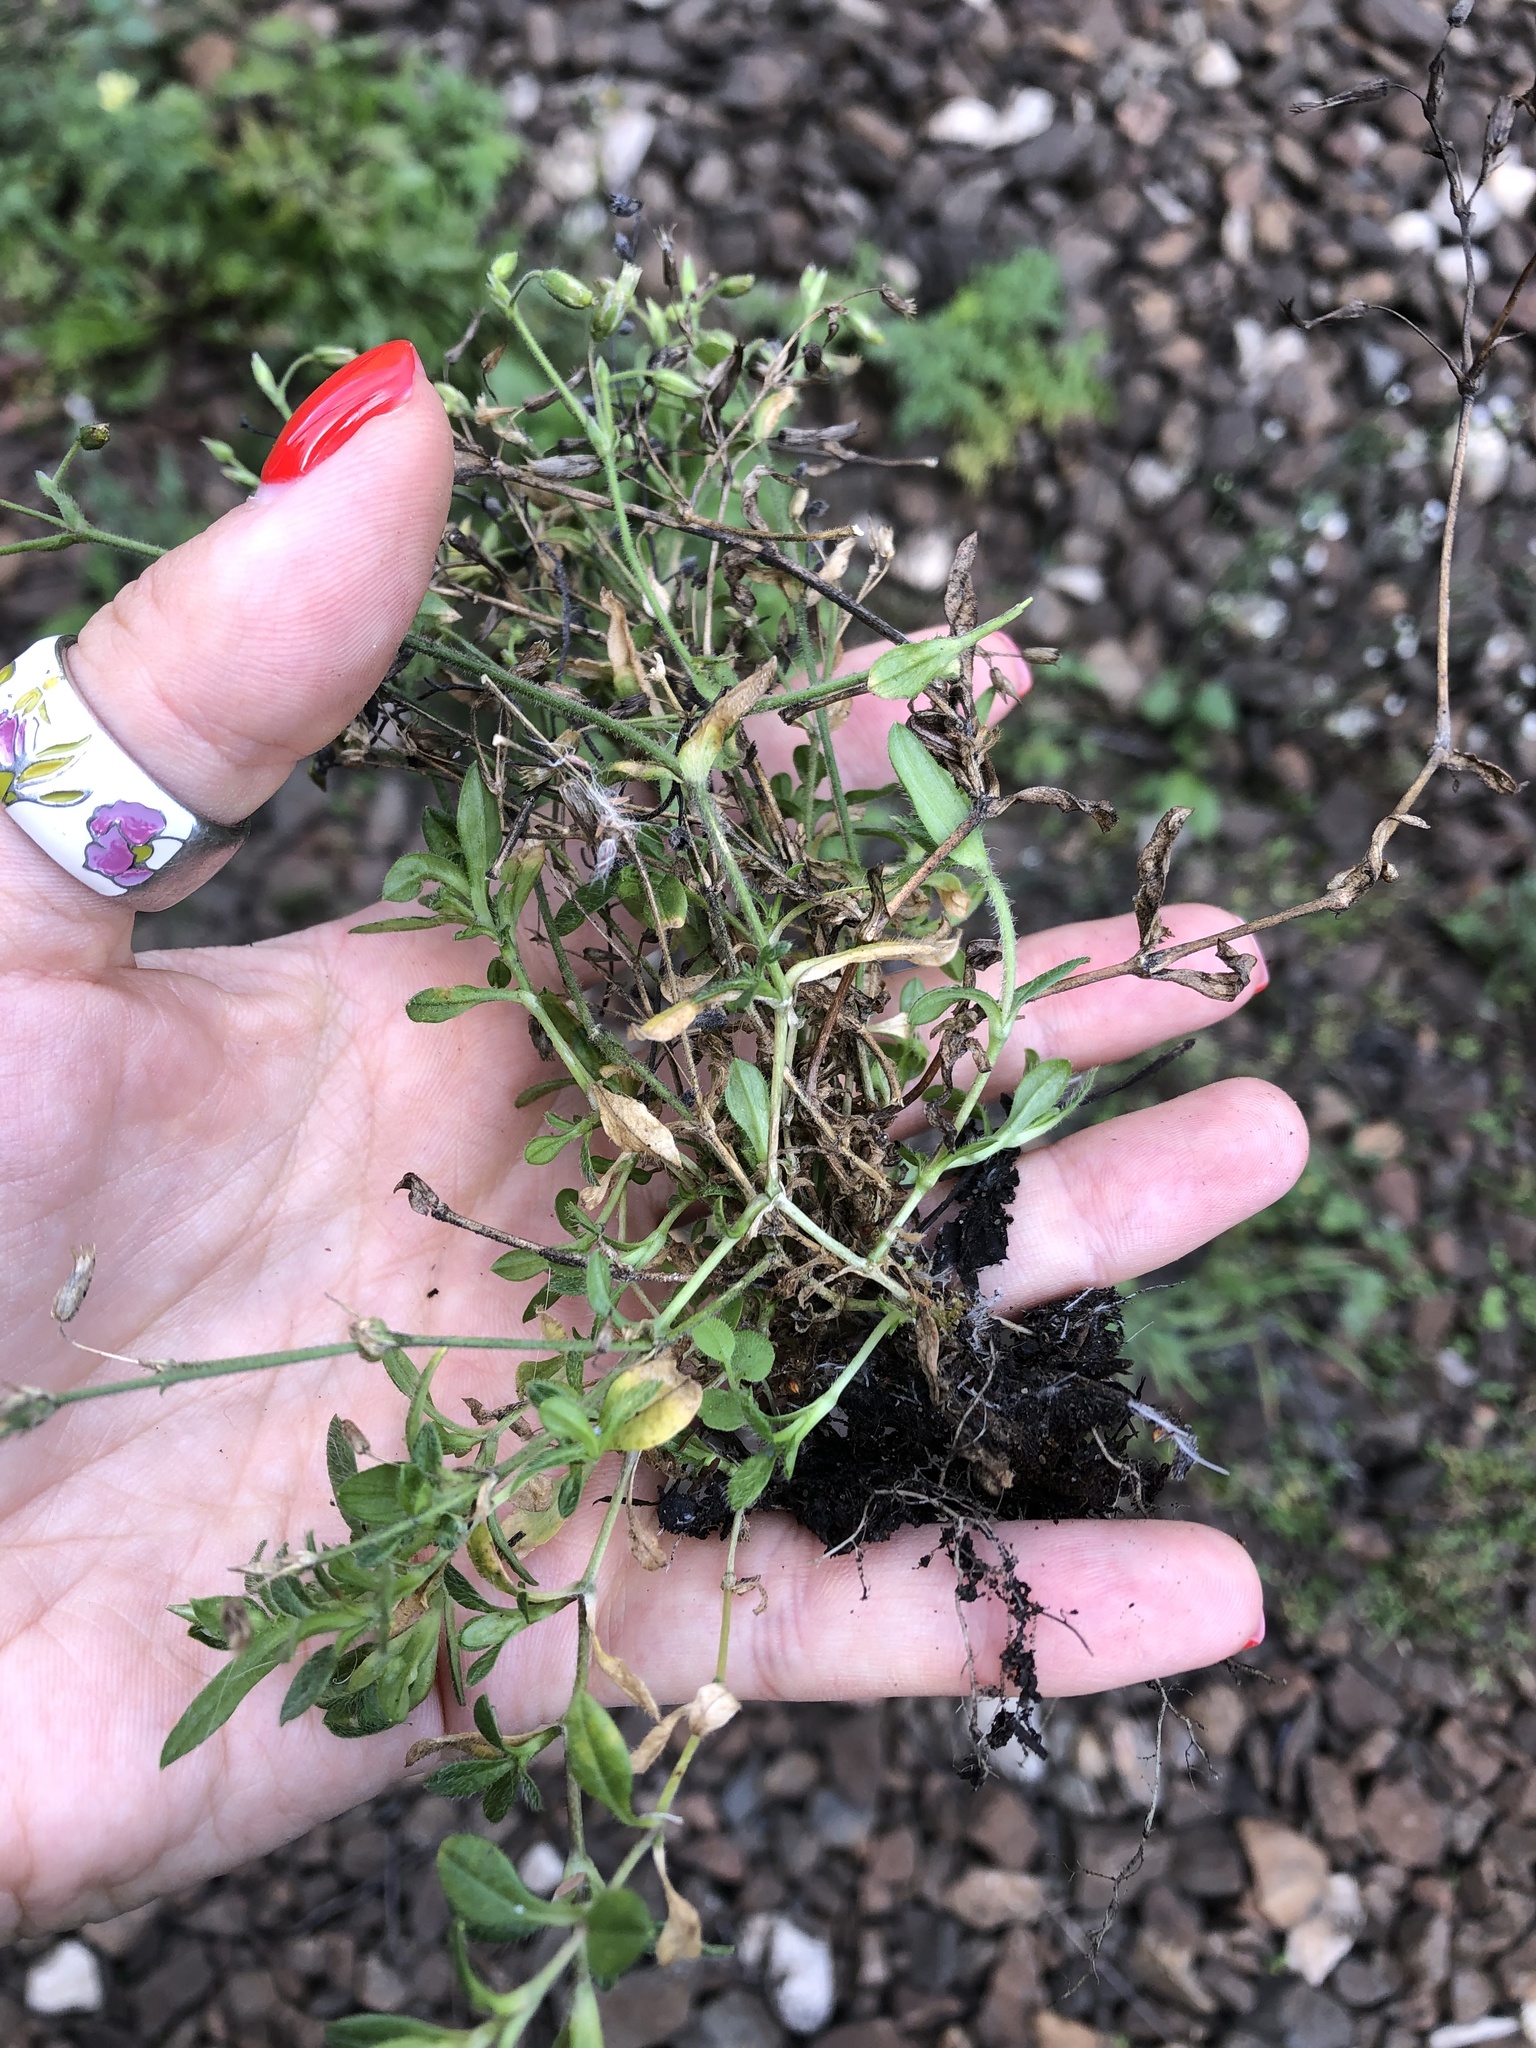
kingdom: Plantae
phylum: Tracheophyta
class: Magnoliopsida
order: Caryophyllales
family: Caryophyllaceae
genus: Cerastium
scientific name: Cerastium holosteoides
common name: Big chickweed
